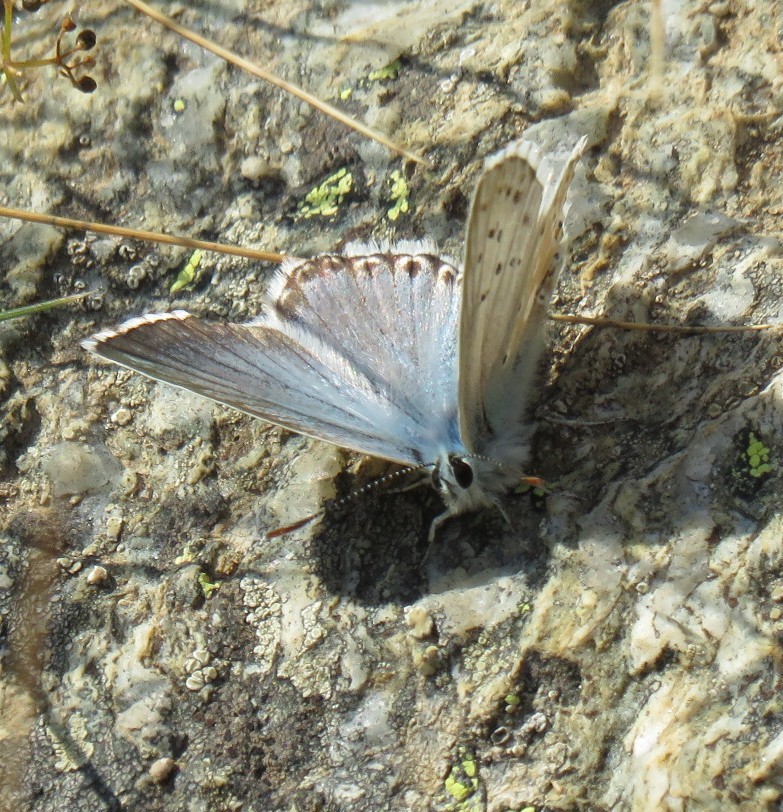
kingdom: Animalia
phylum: Arthropoda
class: Insecta
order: Lepidoptera
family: Lycaenidae
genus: Lysandra
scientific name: Lysandra coridon
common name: Chalkhill blue
